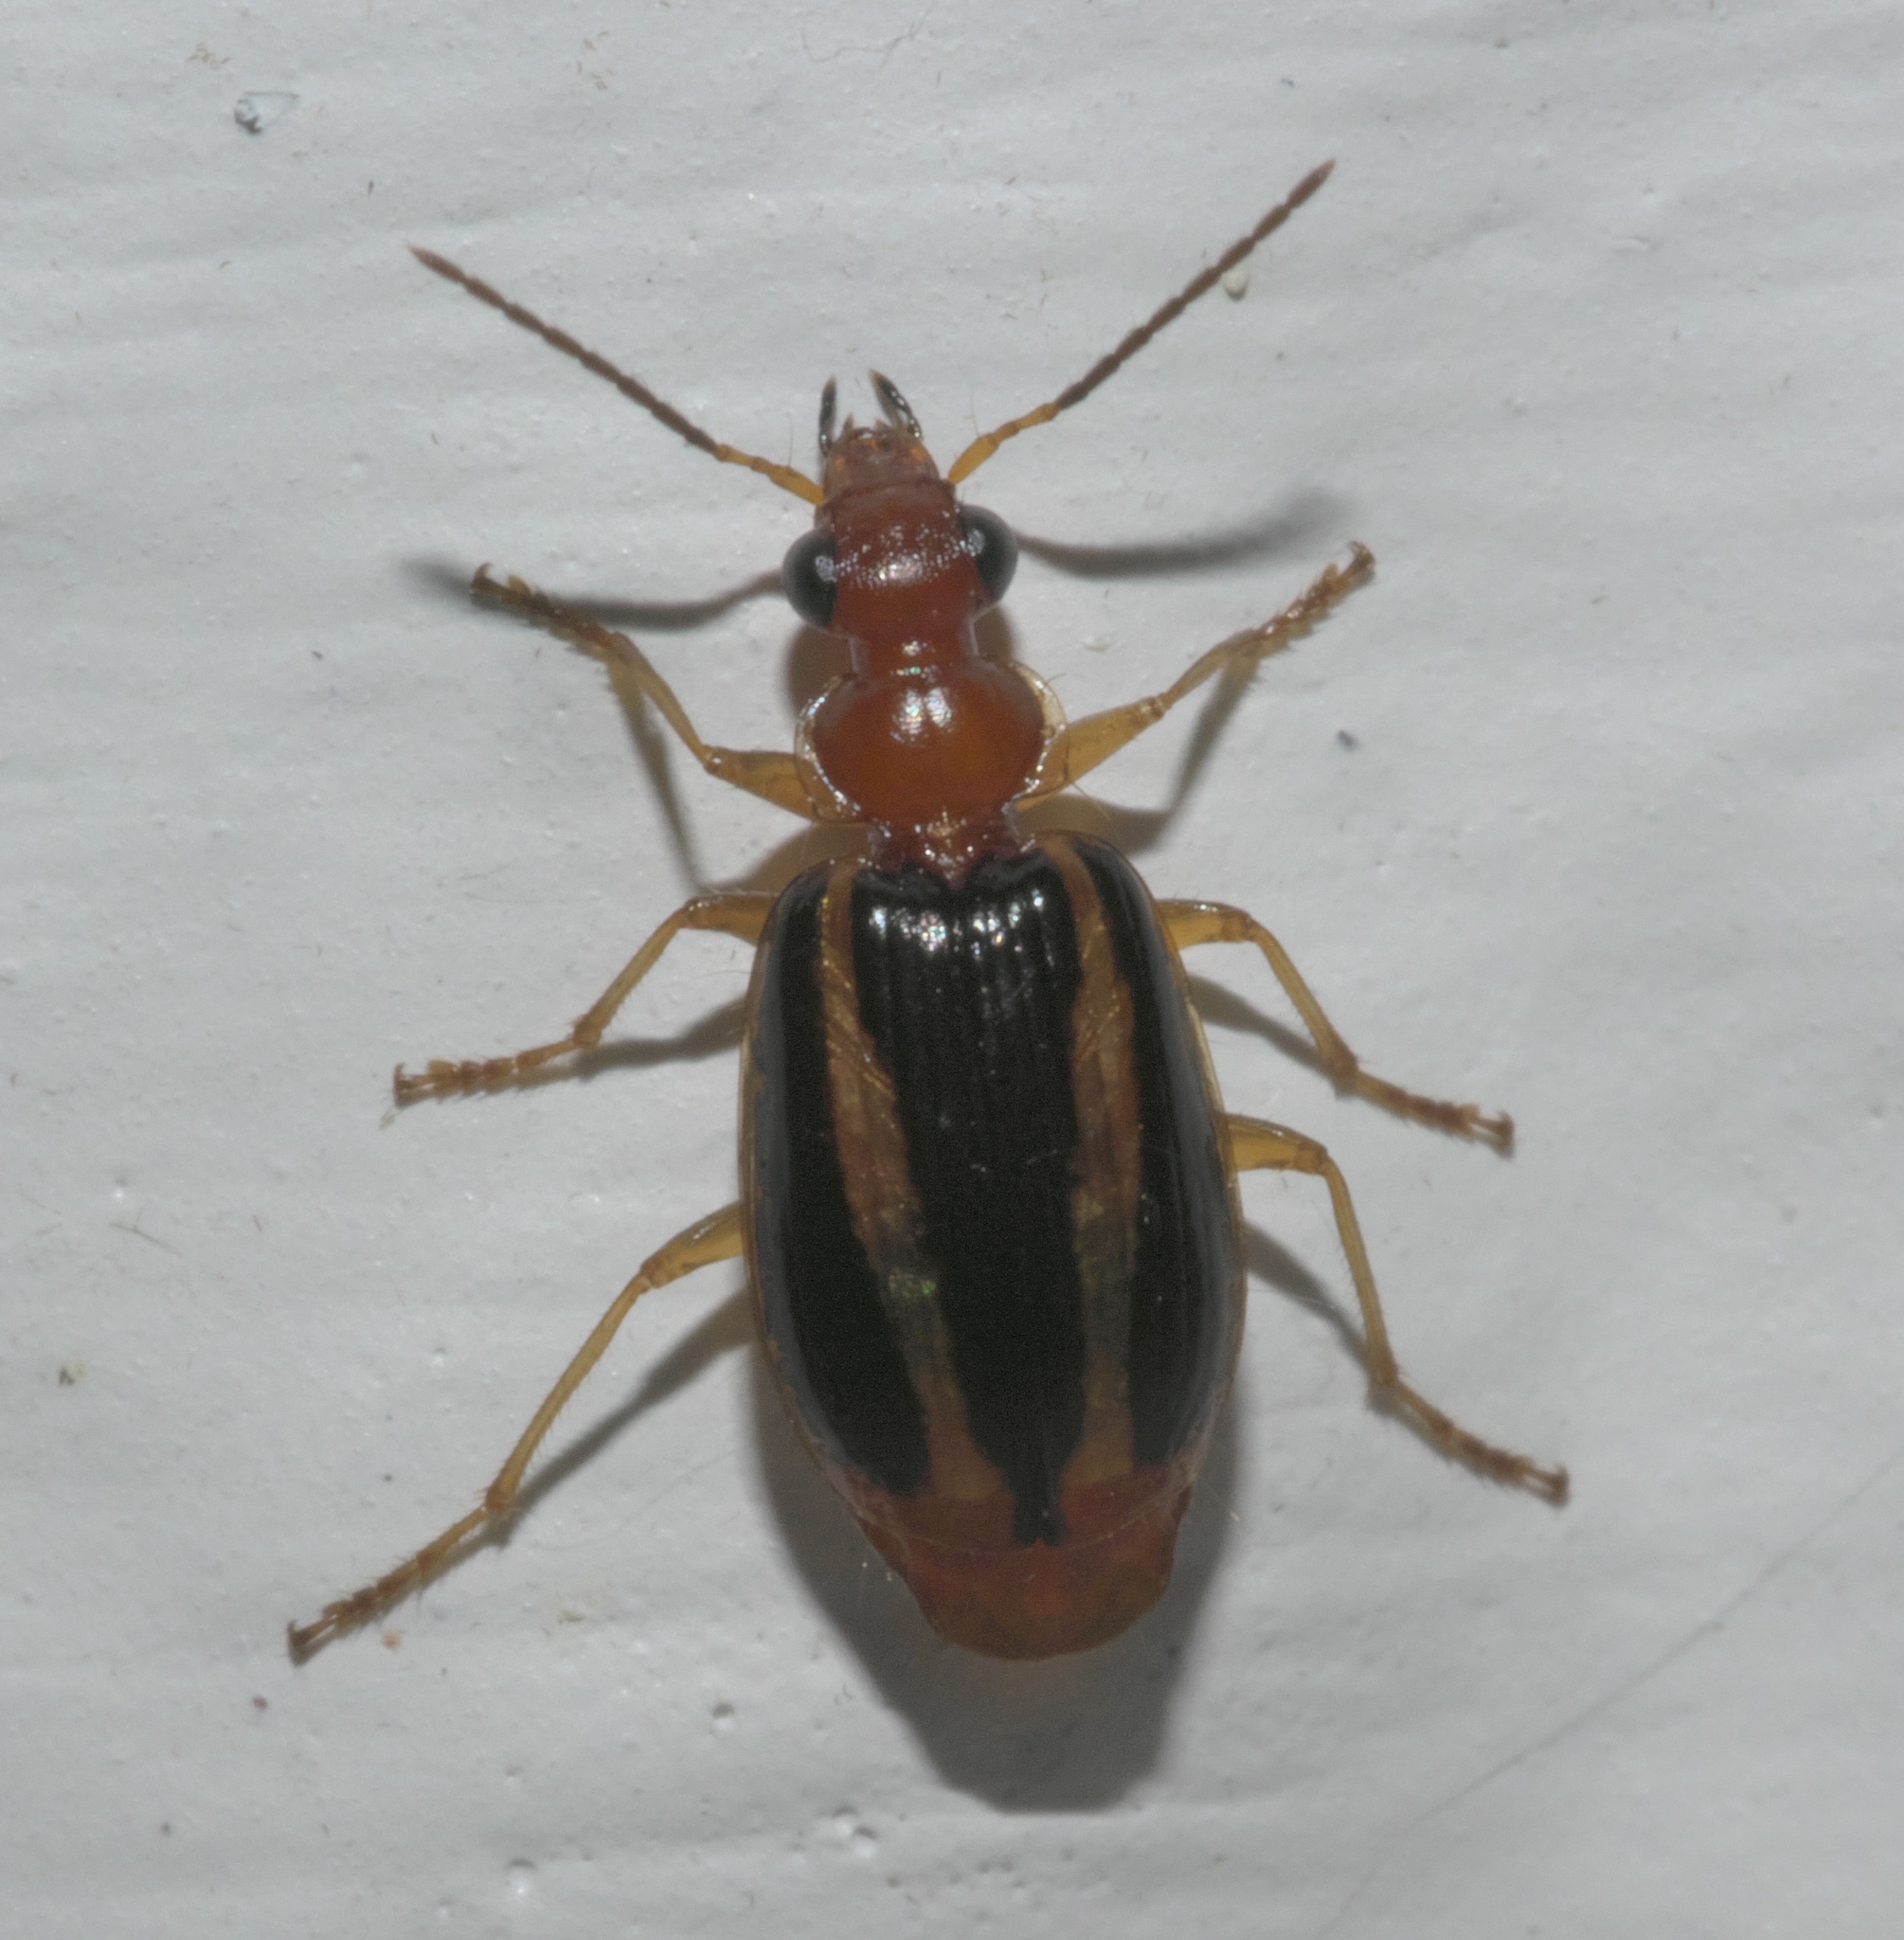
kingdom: Animalia
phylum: Arthropoda
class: Insecta
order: Coleoptera
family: Carabidae
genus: Lebia
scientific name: Lebia solea
